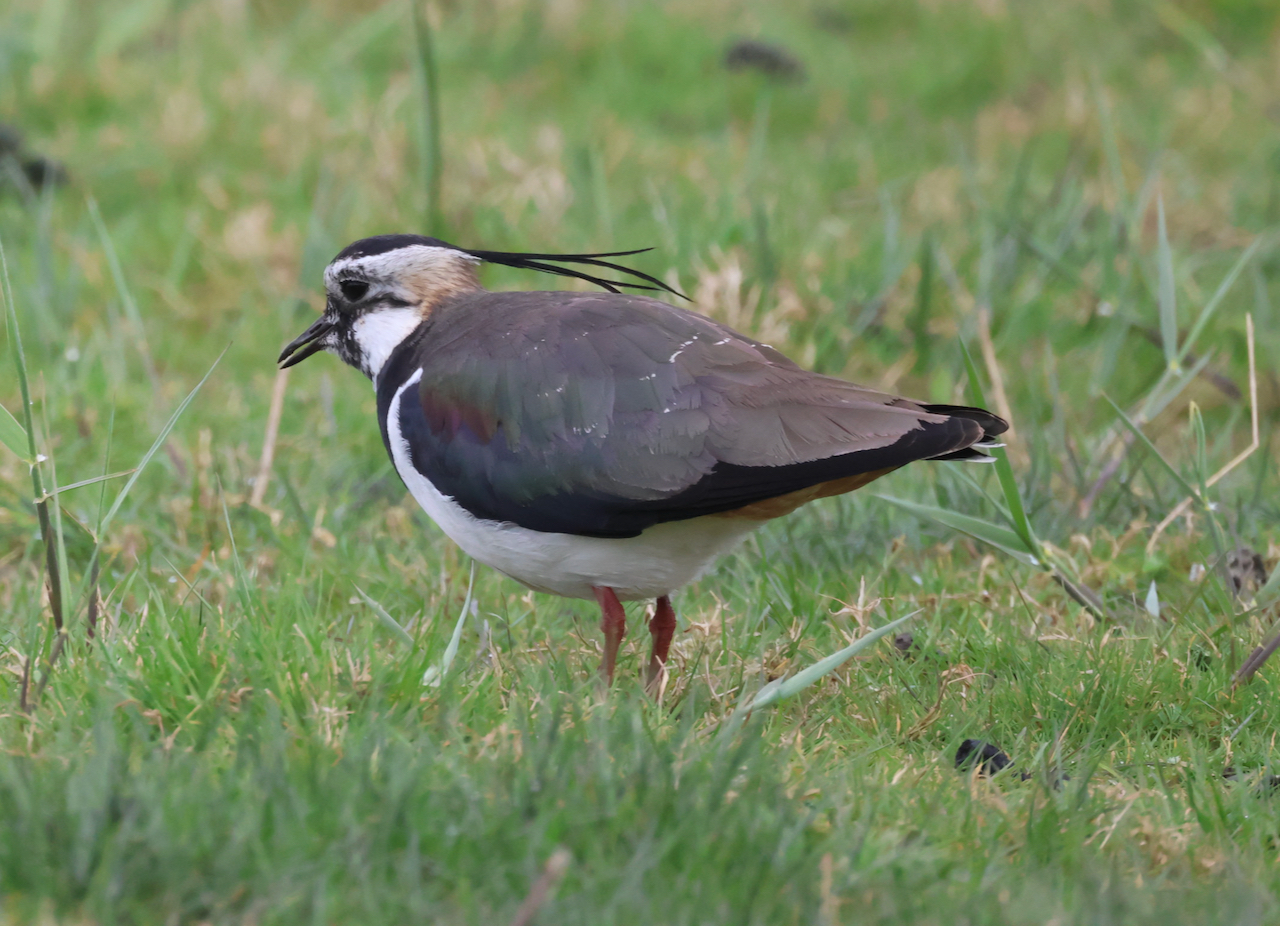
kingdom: Animalia
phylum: Chordata
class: Aves
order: Charadriiformes
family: Charadriidae
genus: Vanellus
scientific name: Vanellus vanellus
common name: Northern lapwing
